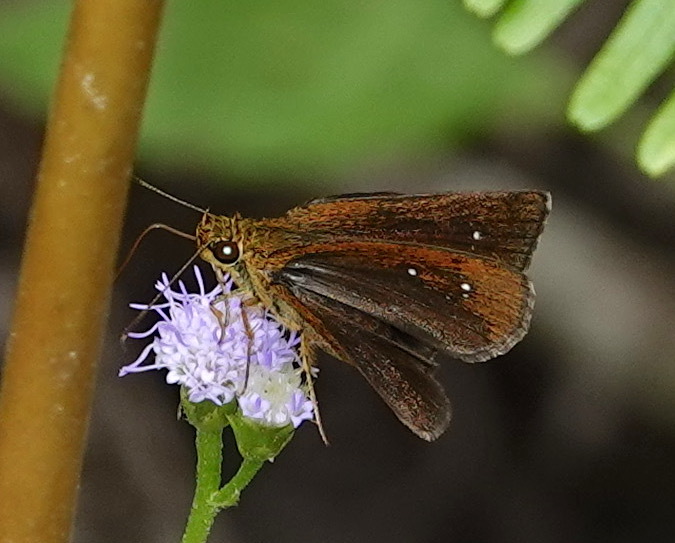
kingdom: Animalia
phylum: Arthropoda
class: Insecta
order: Lepidoptera
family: Hesperiidae
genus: Iambrix
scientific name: Iambrix salsala
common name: Chestnut bob
